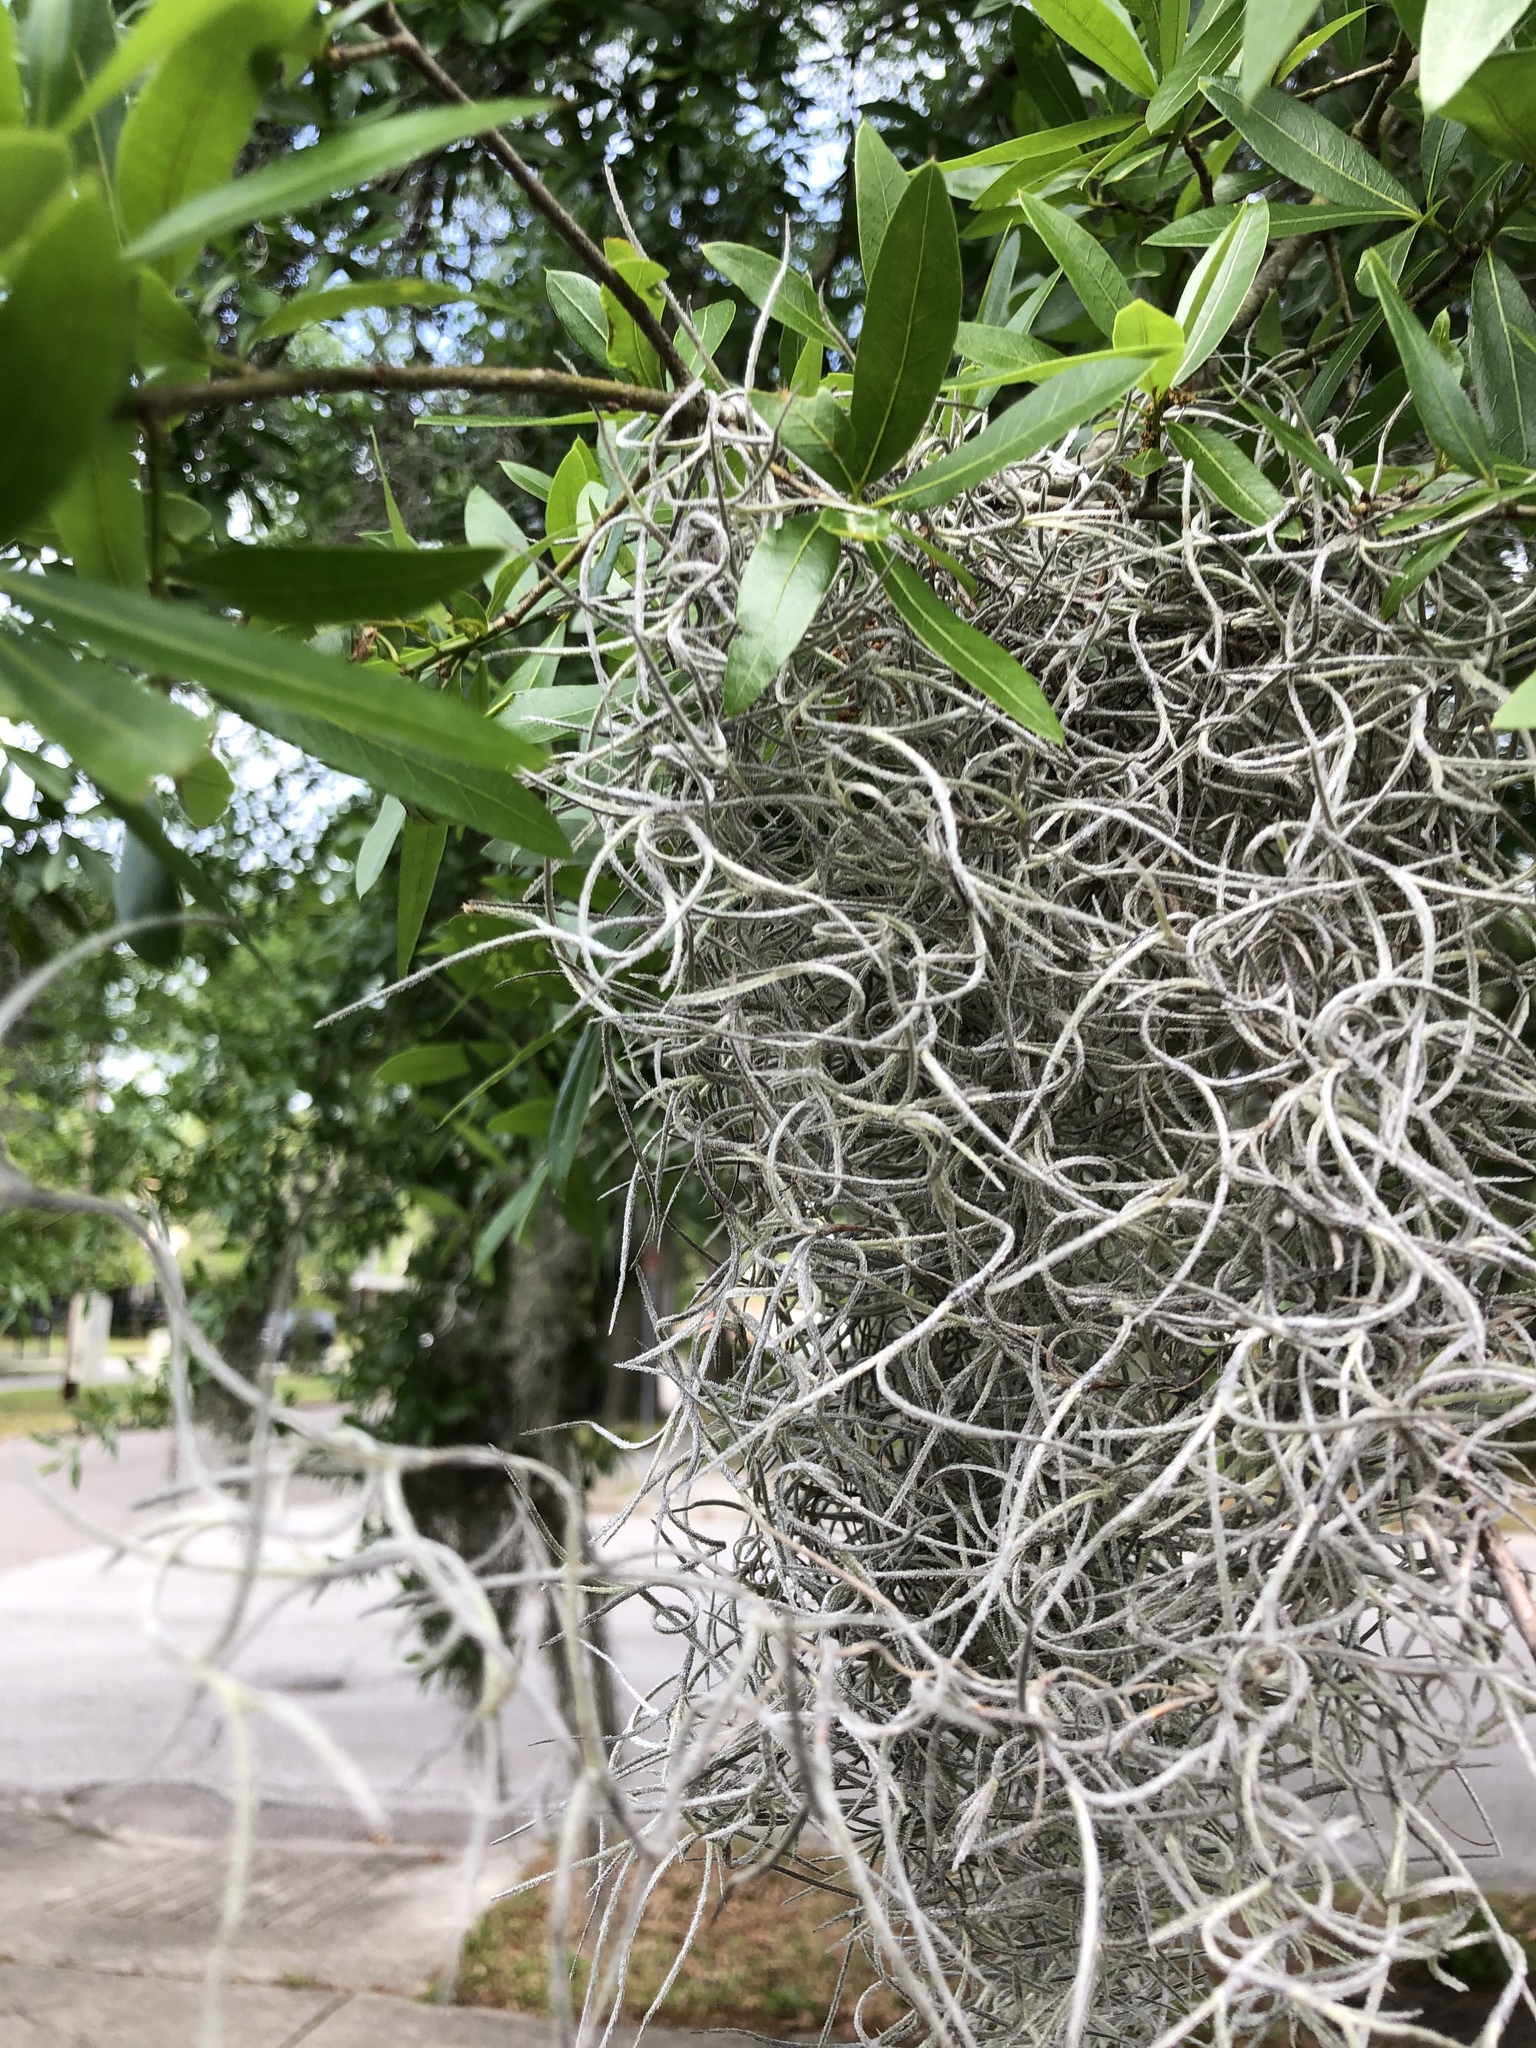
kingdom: Plantae
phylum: Tracheophyta
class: Liliopsida
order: Poales
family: Bromeliaceae
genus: Tillandsia
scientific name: Tillandsia usneoides
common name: Spanish moss
